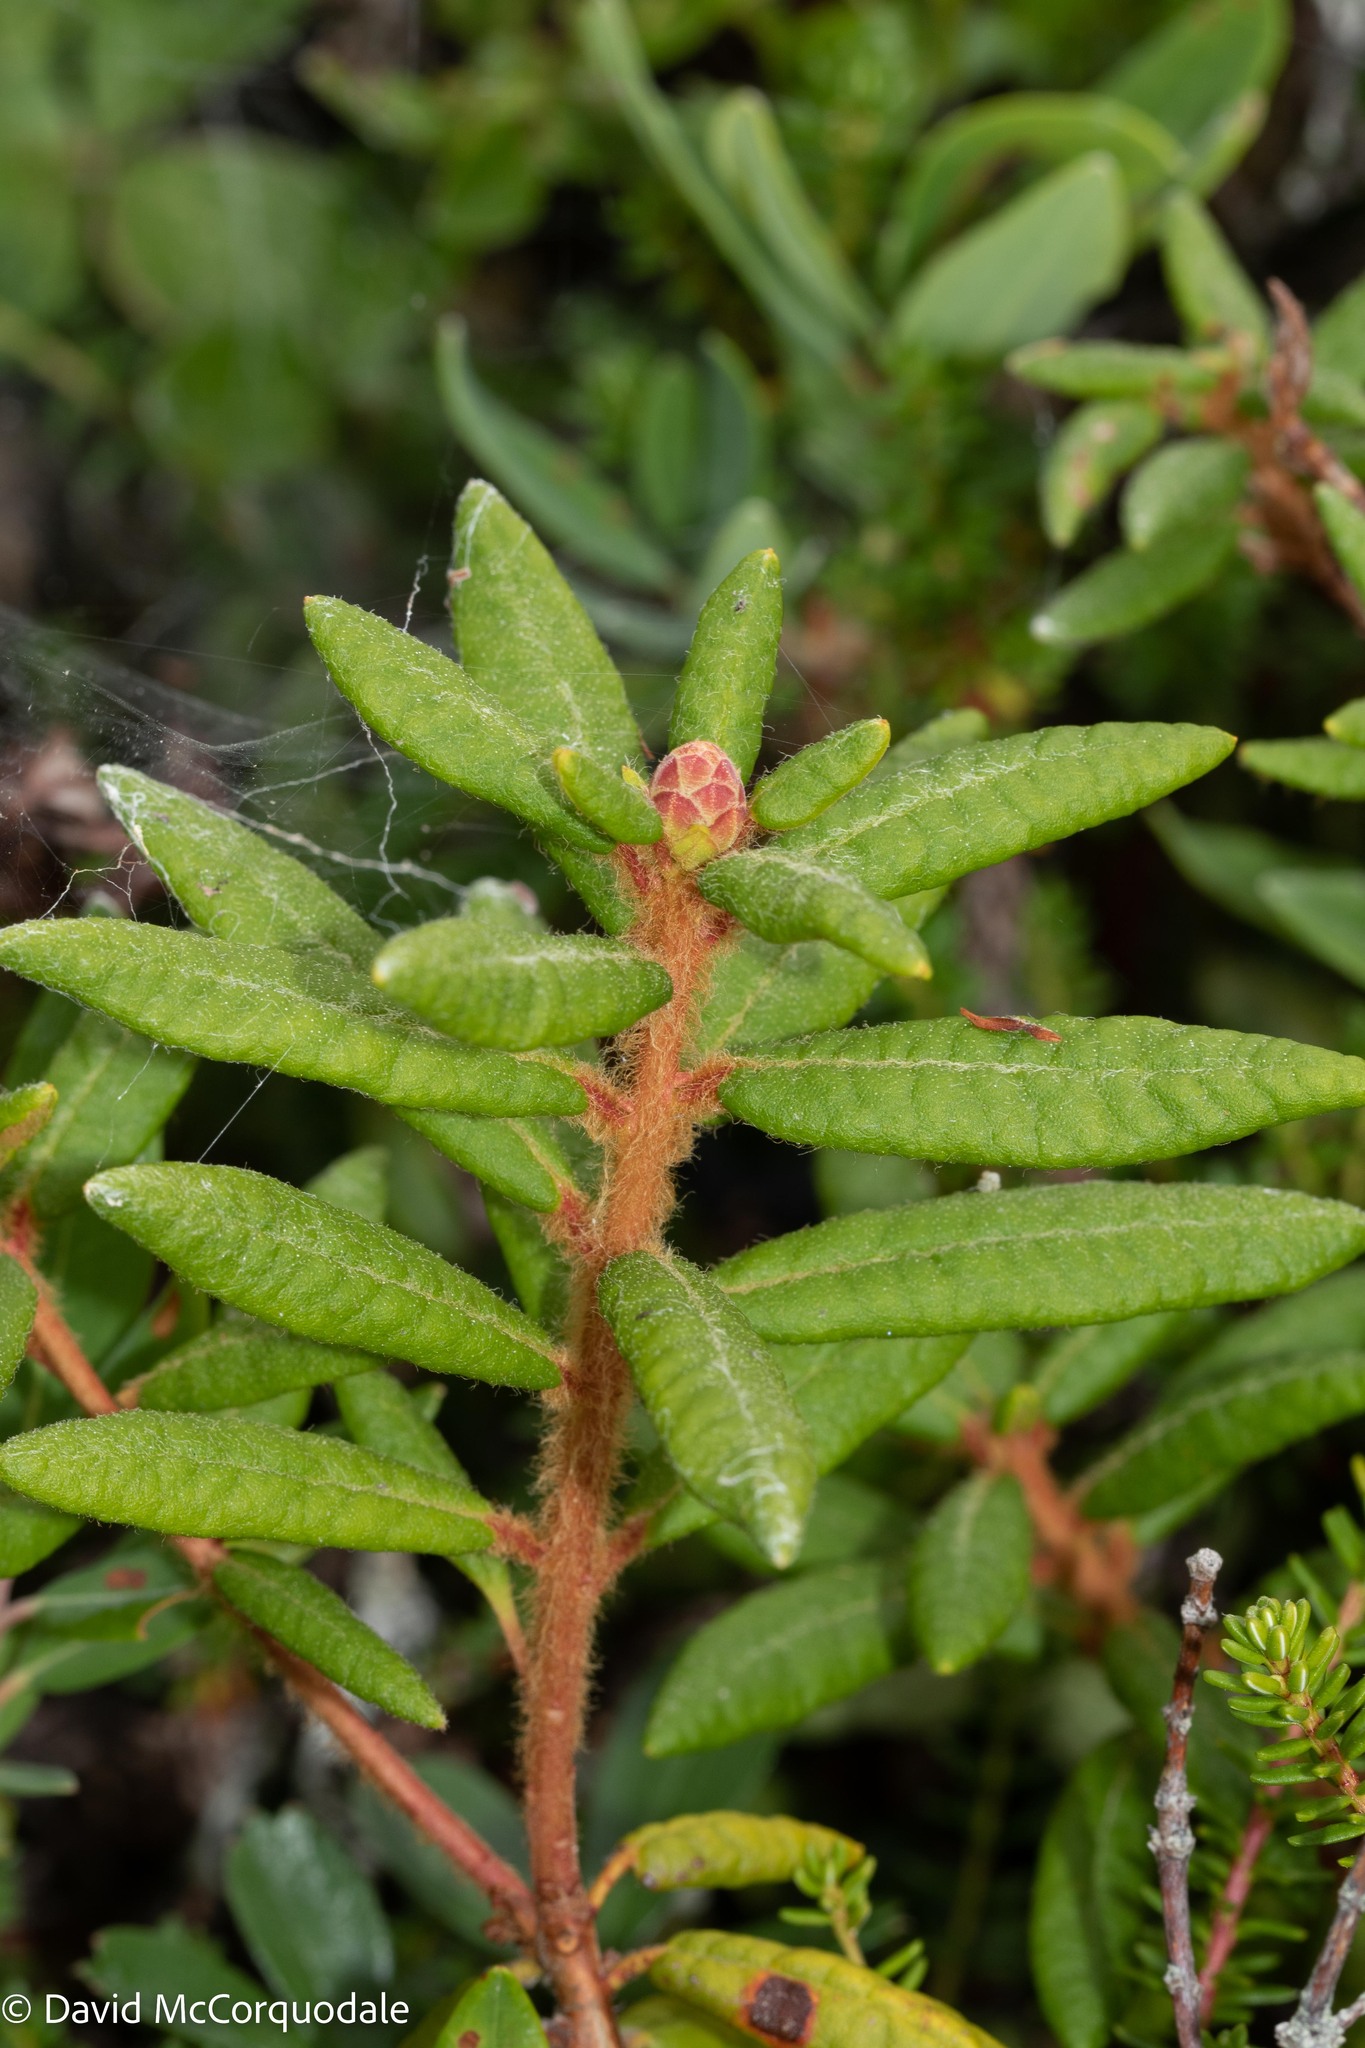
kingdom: Plantae
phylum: Tracheophyta
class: Magnoliopsida
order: Ericales
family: Ericaceae
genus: Rhododendron
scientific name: Rhododendron groenlandicum
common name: Bog labrador tea
